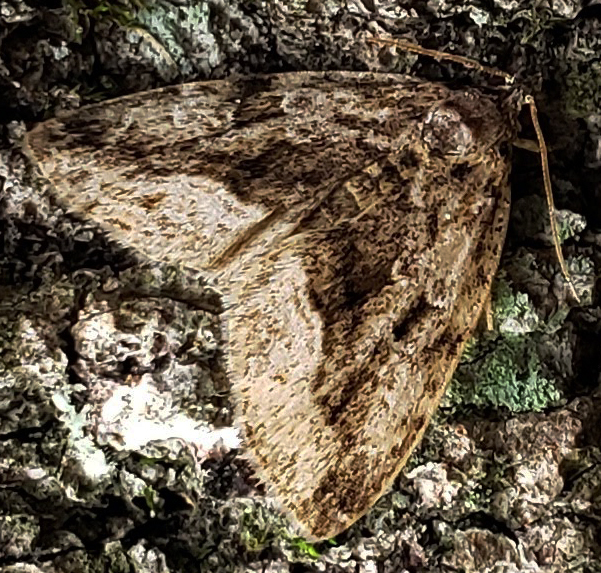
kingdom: Animalia
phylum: Arthropoda
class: Insecta
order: Lepidoptera
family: Noctuidae
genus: Protodeltote
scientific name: Protodeltote muscosula
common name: Large mossy glyph
